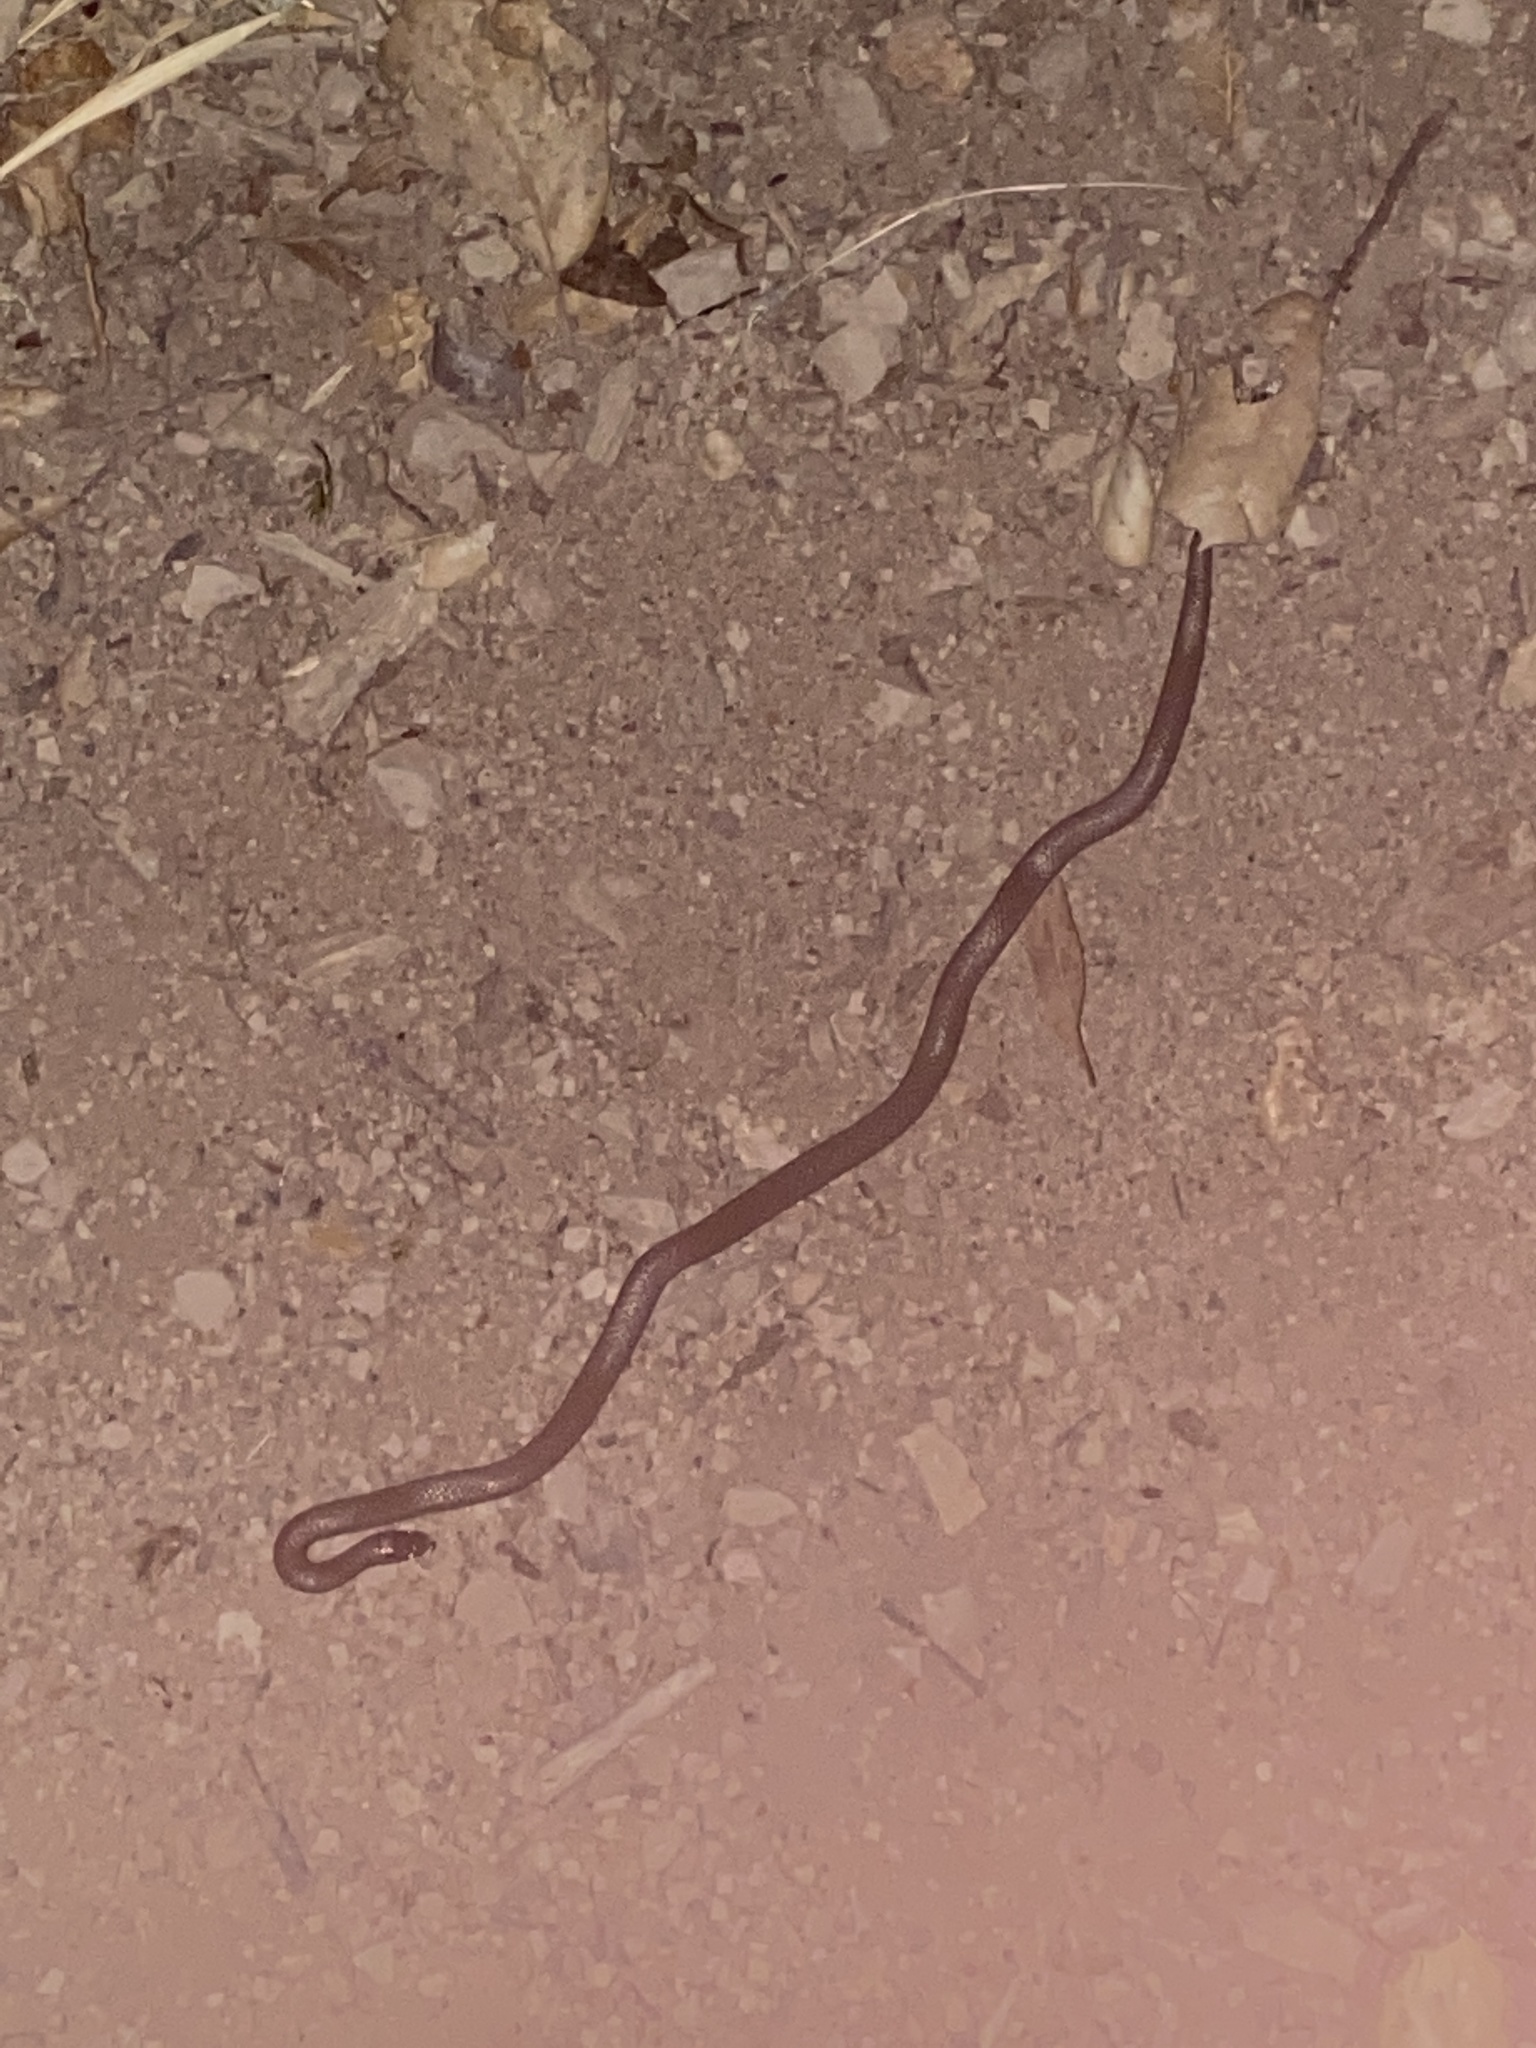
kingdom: Animalia
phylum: Chordata
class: Squamata
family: Colubridae
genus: Contia
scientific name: Contia tenuis
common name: Sharptail snake
